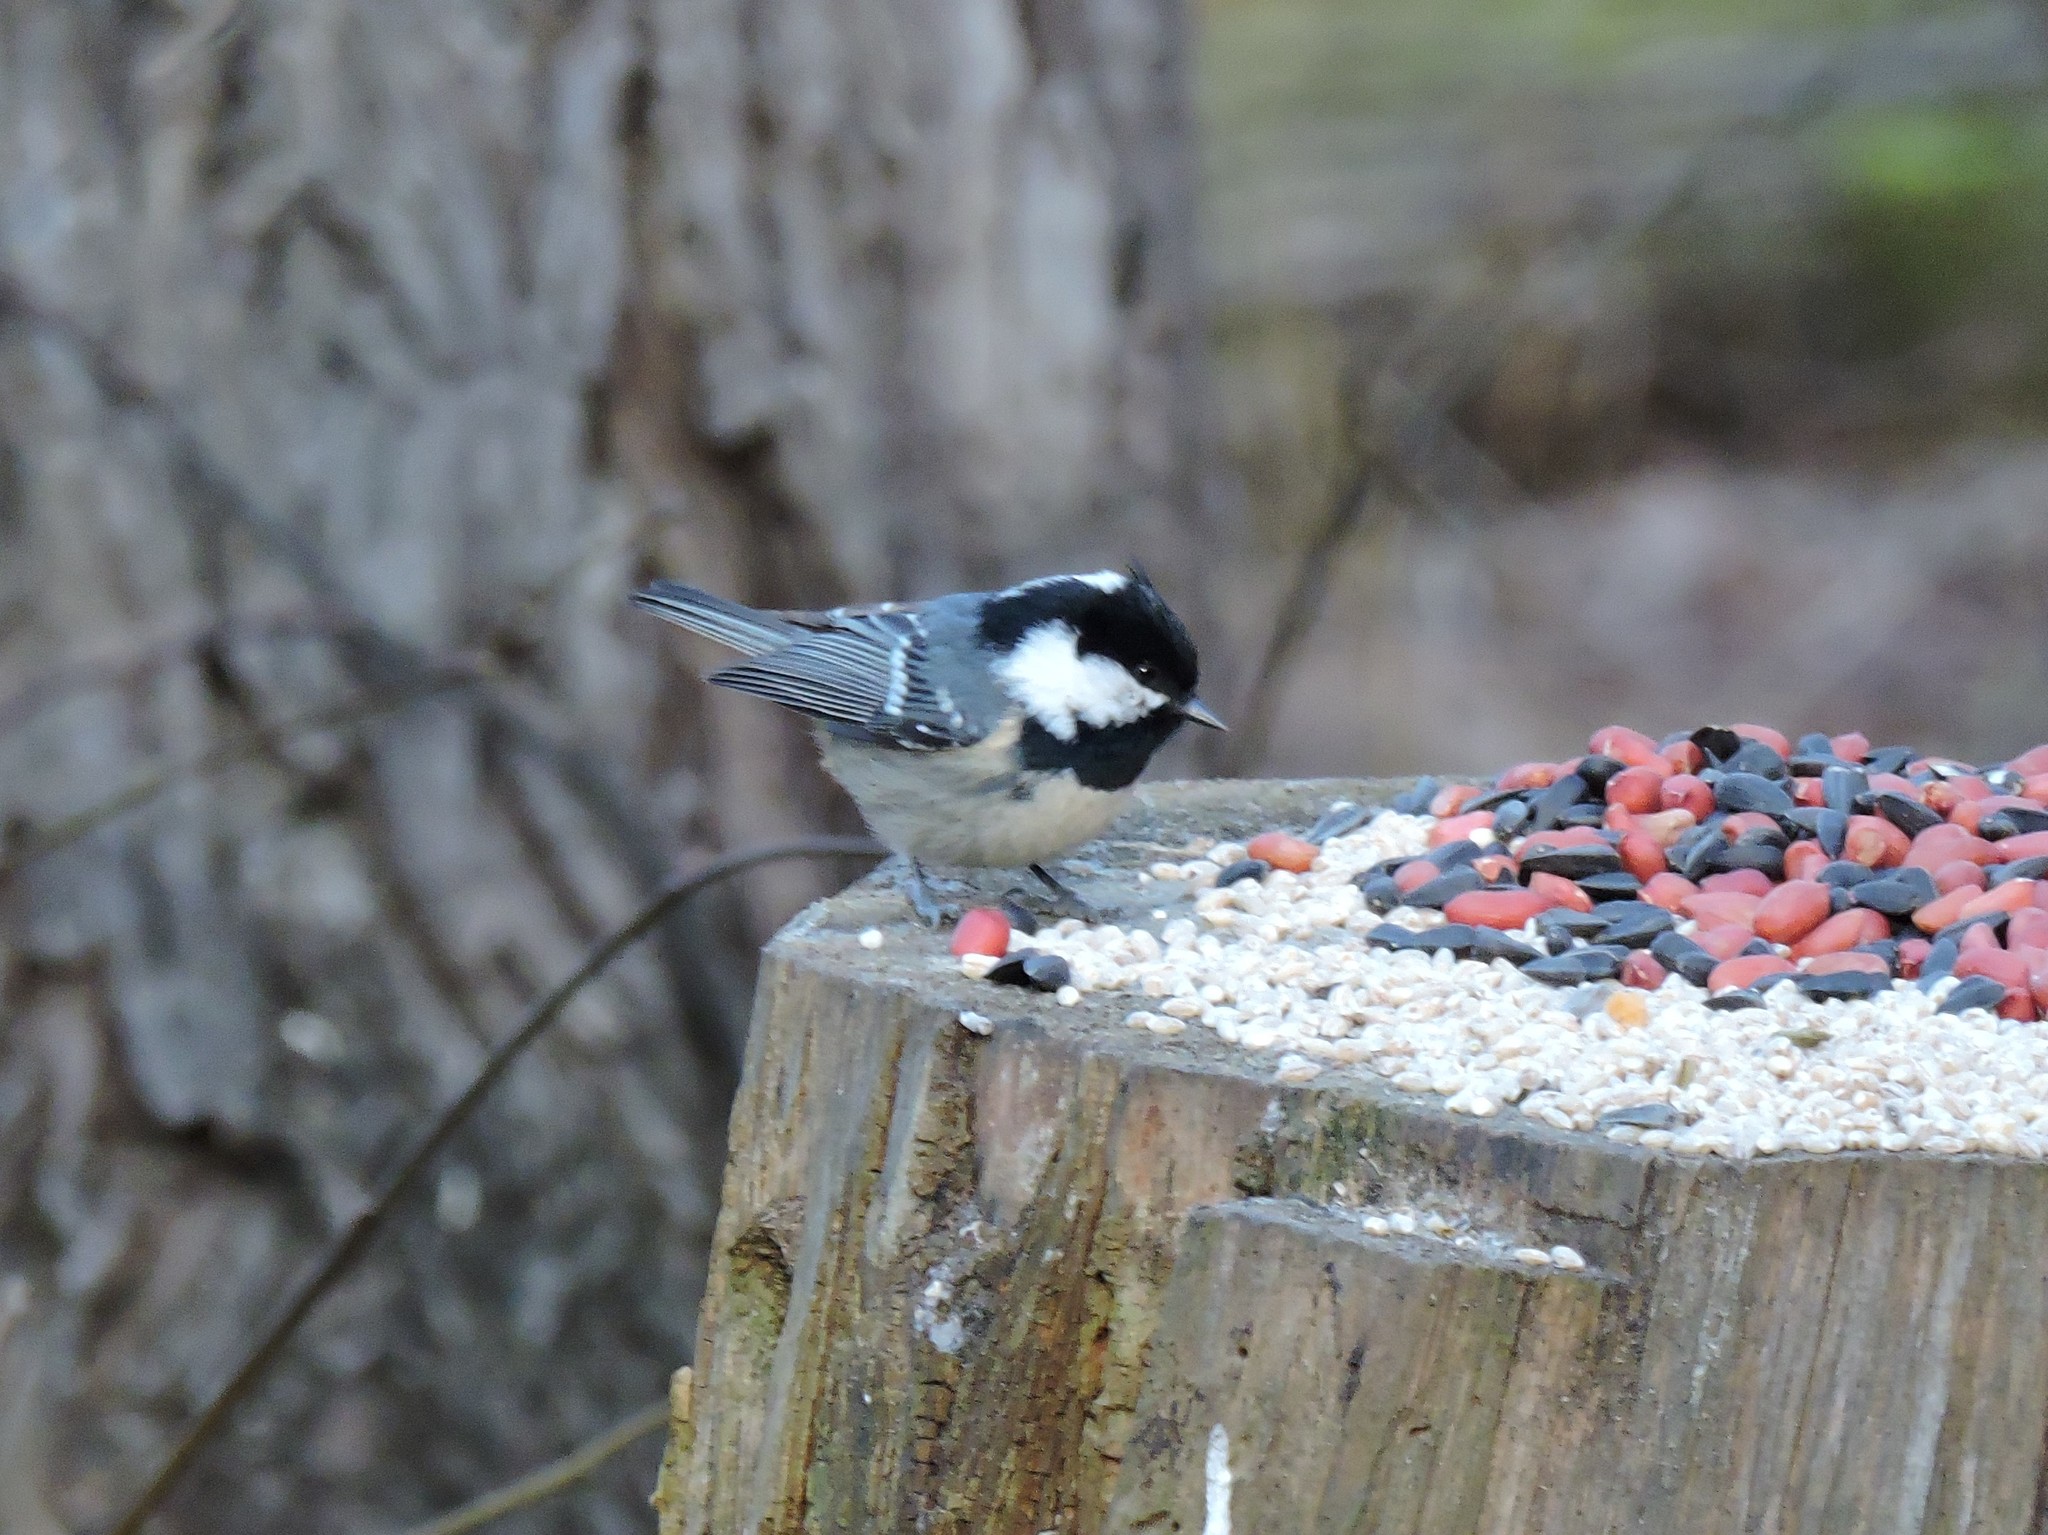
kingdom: Animalia
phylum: Chordata
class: Aves
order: Passeriformes
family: Paridae
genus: Periparus
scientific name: Periparus ater
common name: Coal tit
